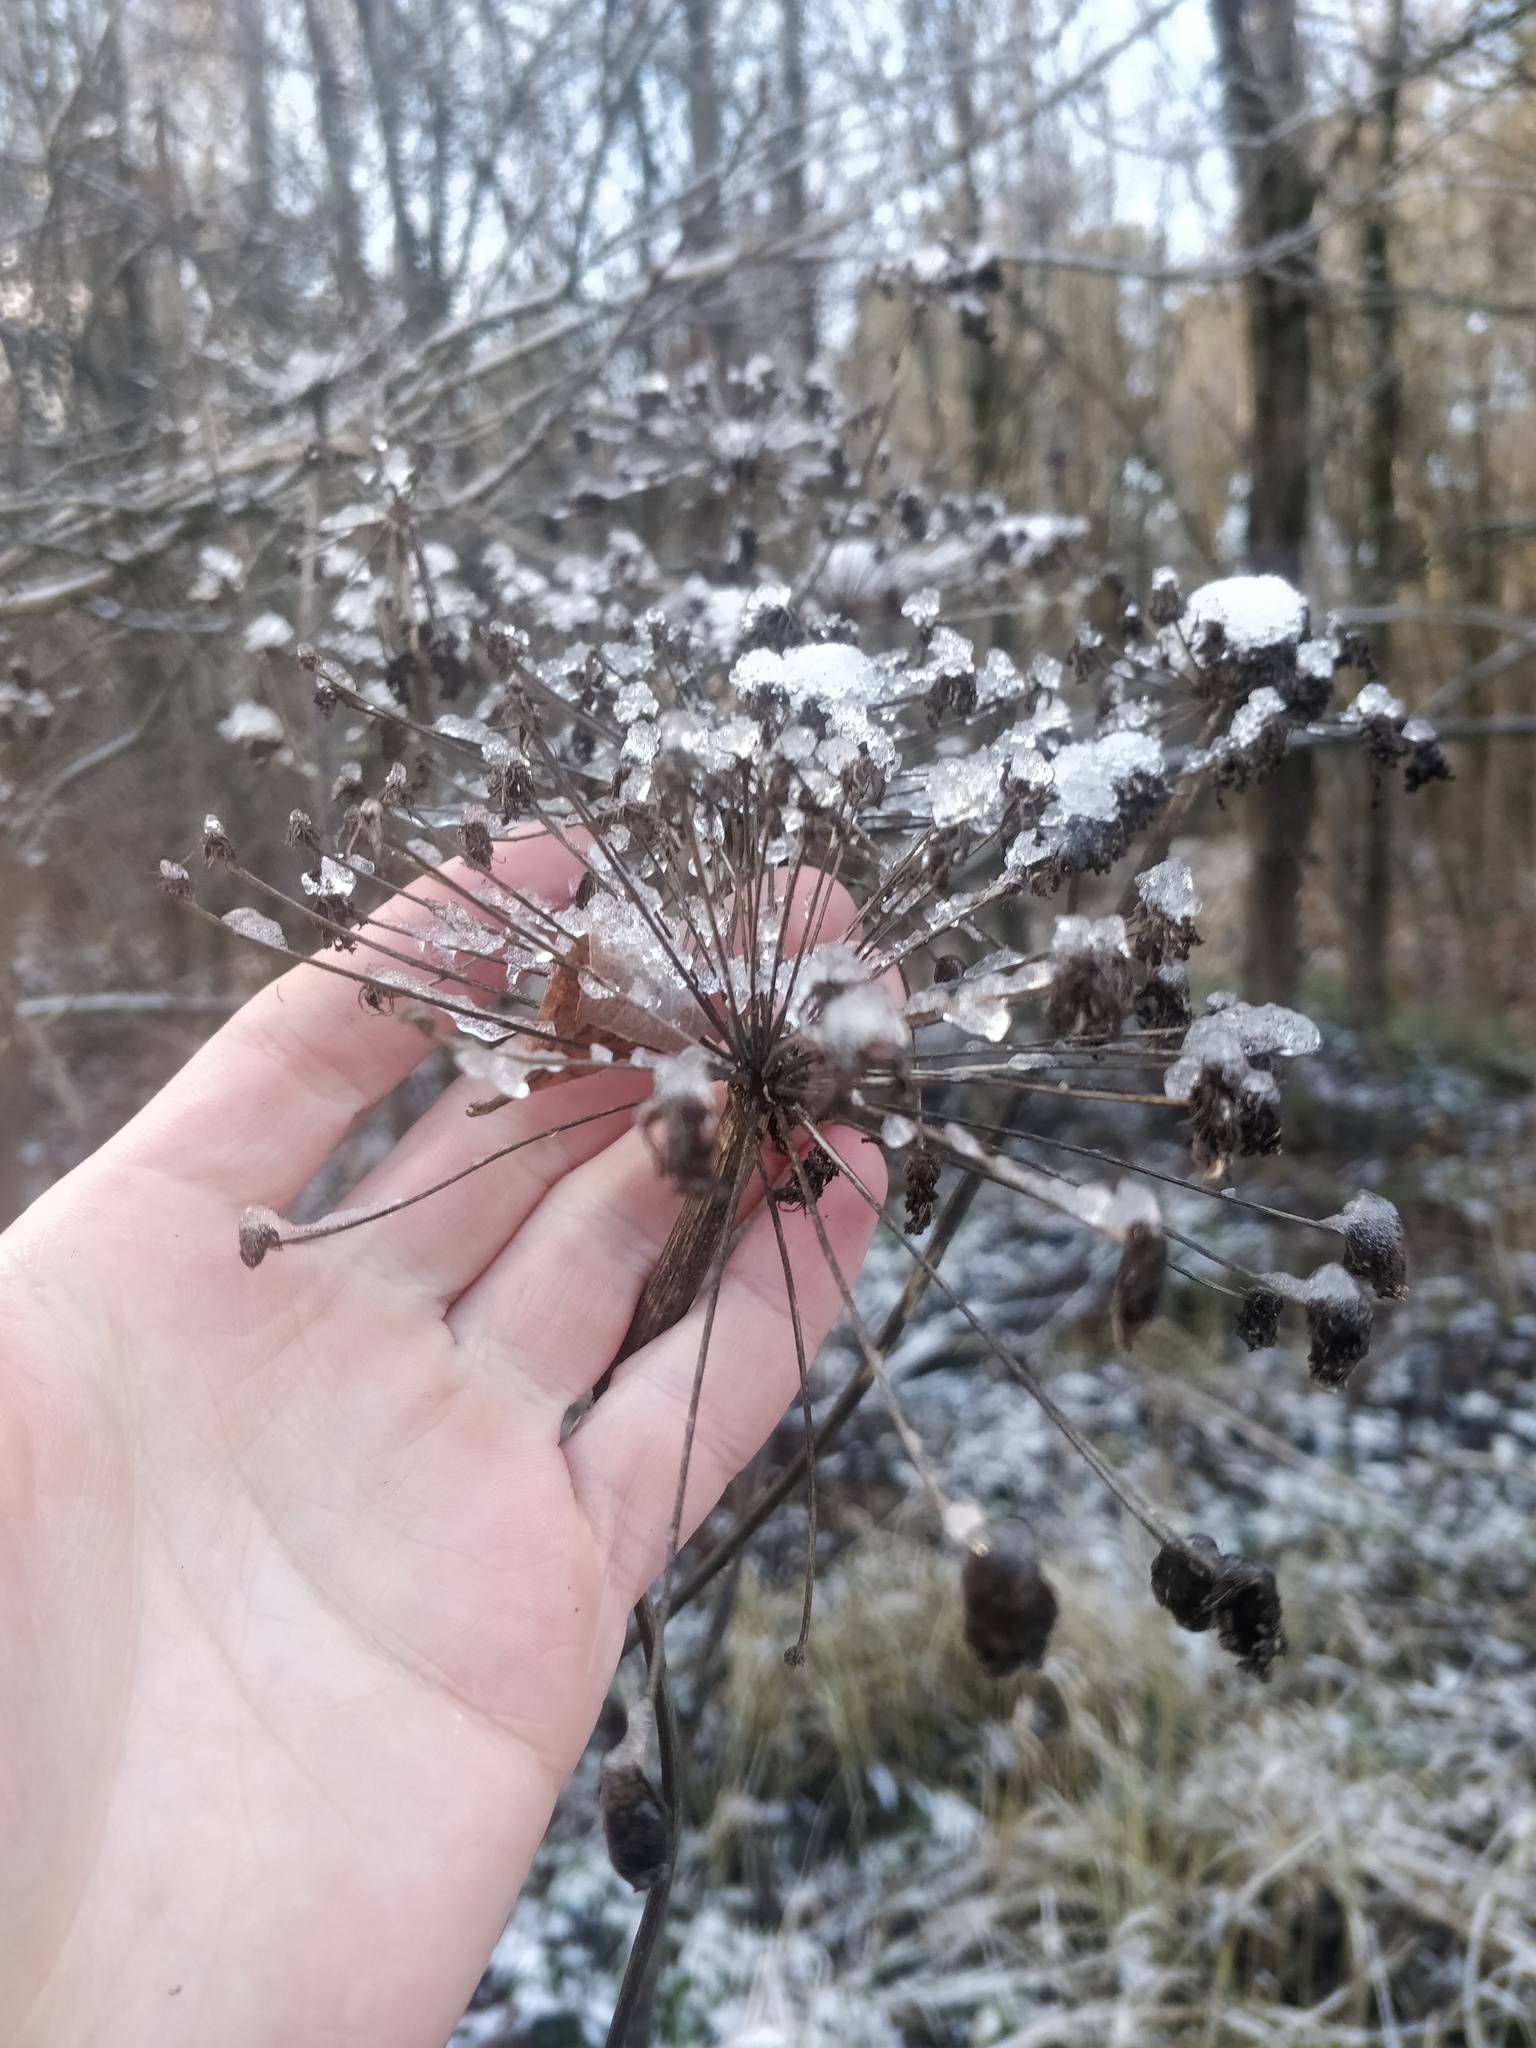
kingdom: Plantae
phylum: Tracheophyta
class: Magnoliopsida
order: Apiales
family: Apiaceae
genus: Angelica
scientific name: Angelica sylvestris
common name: Wild angelica
